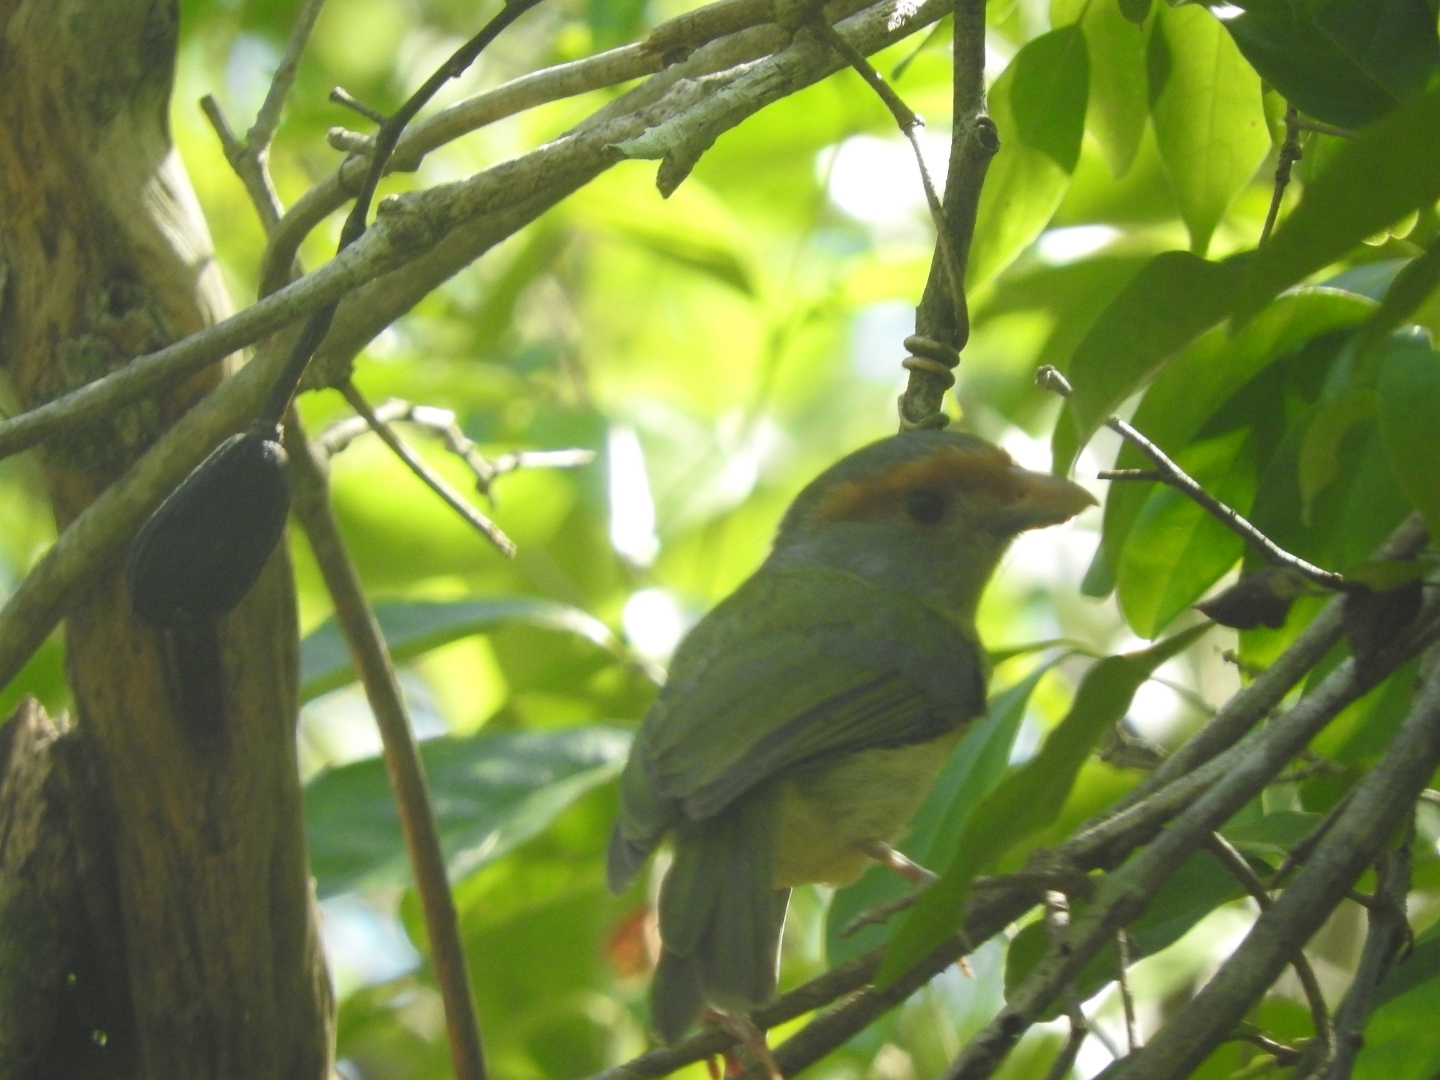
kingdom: Animalia
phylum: Chordata
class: Aves
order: Passeriformes
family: Vireonidae
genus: Cyclarhis
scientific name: Cyclarhis gujanensis
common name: Rufous-browed peppershrike
